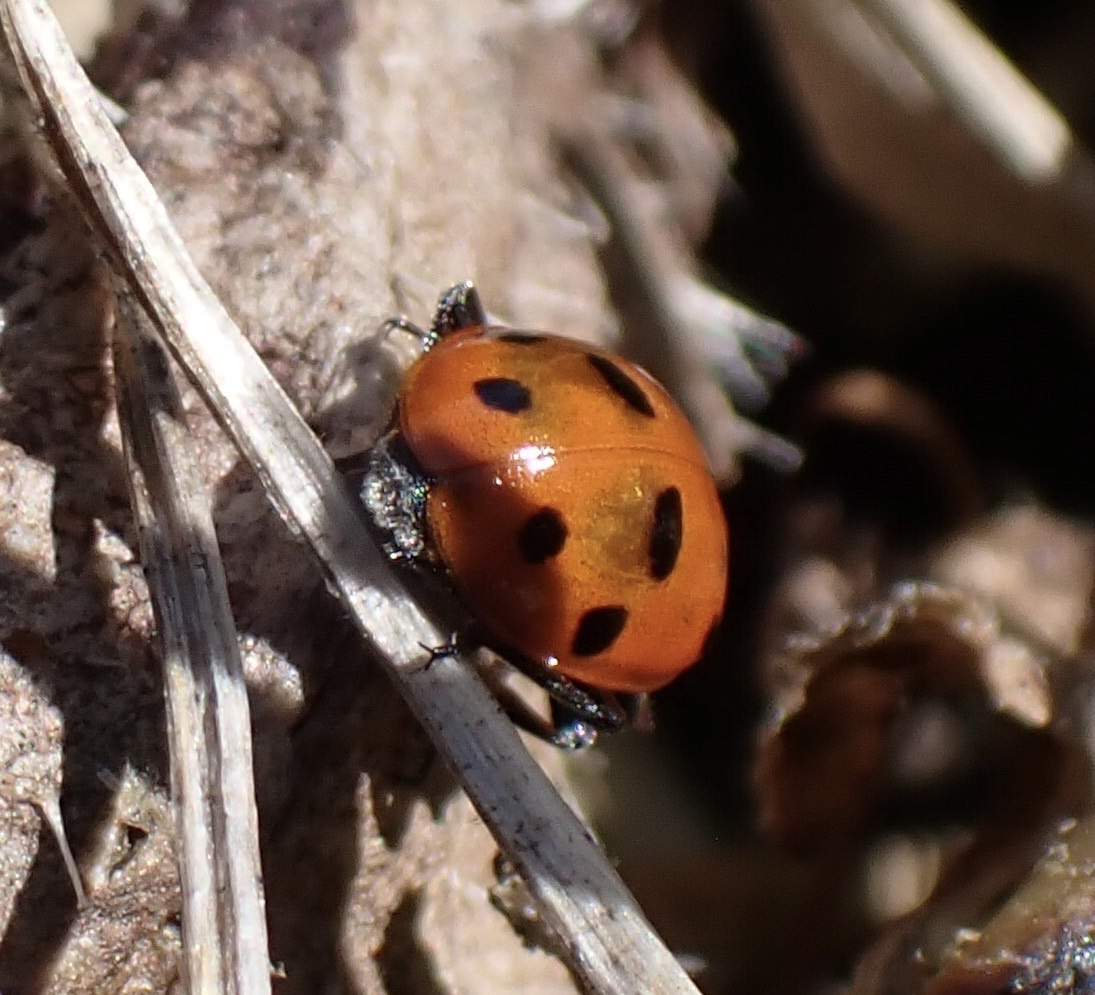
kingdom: Animalia
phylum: Arthropoda
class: Insecta
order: Coleoptera
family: Coccinellidae
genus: Hippodamia
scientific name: Hippodamia variegata
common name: Ladybird beetle
